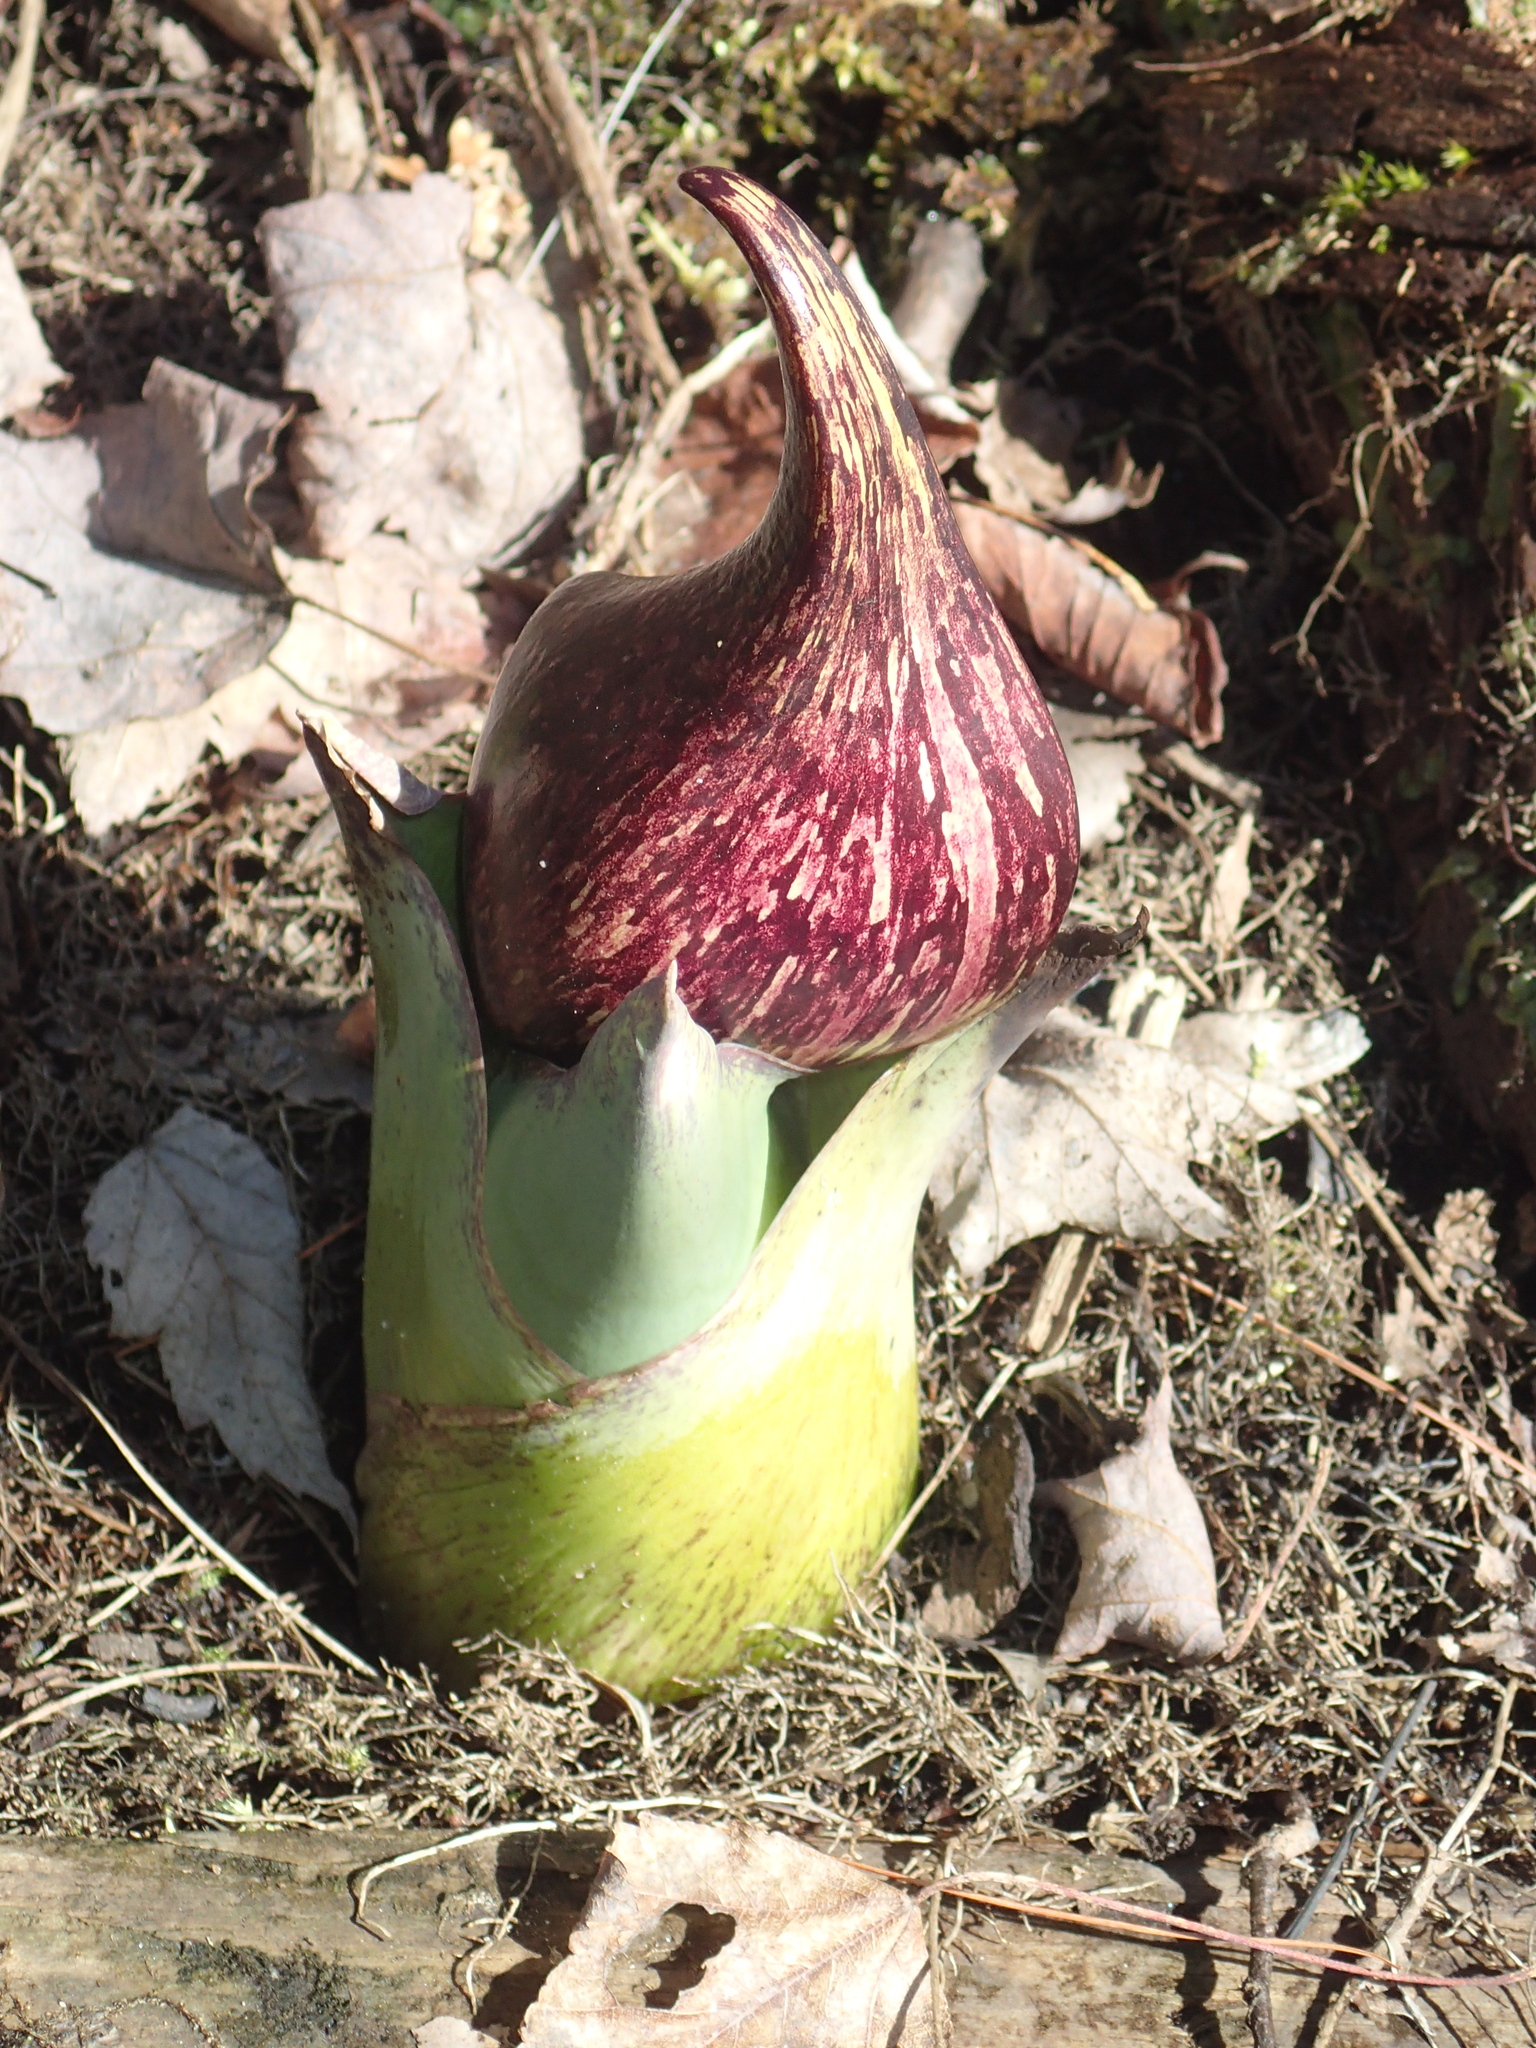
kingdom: Plantae
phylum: Tracheophyta
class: Liliopsida
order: Alismatales
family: Araceae
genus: Symplocarpus
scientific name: Symplocarpus foetidus
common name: Eastern skunk cabbage
